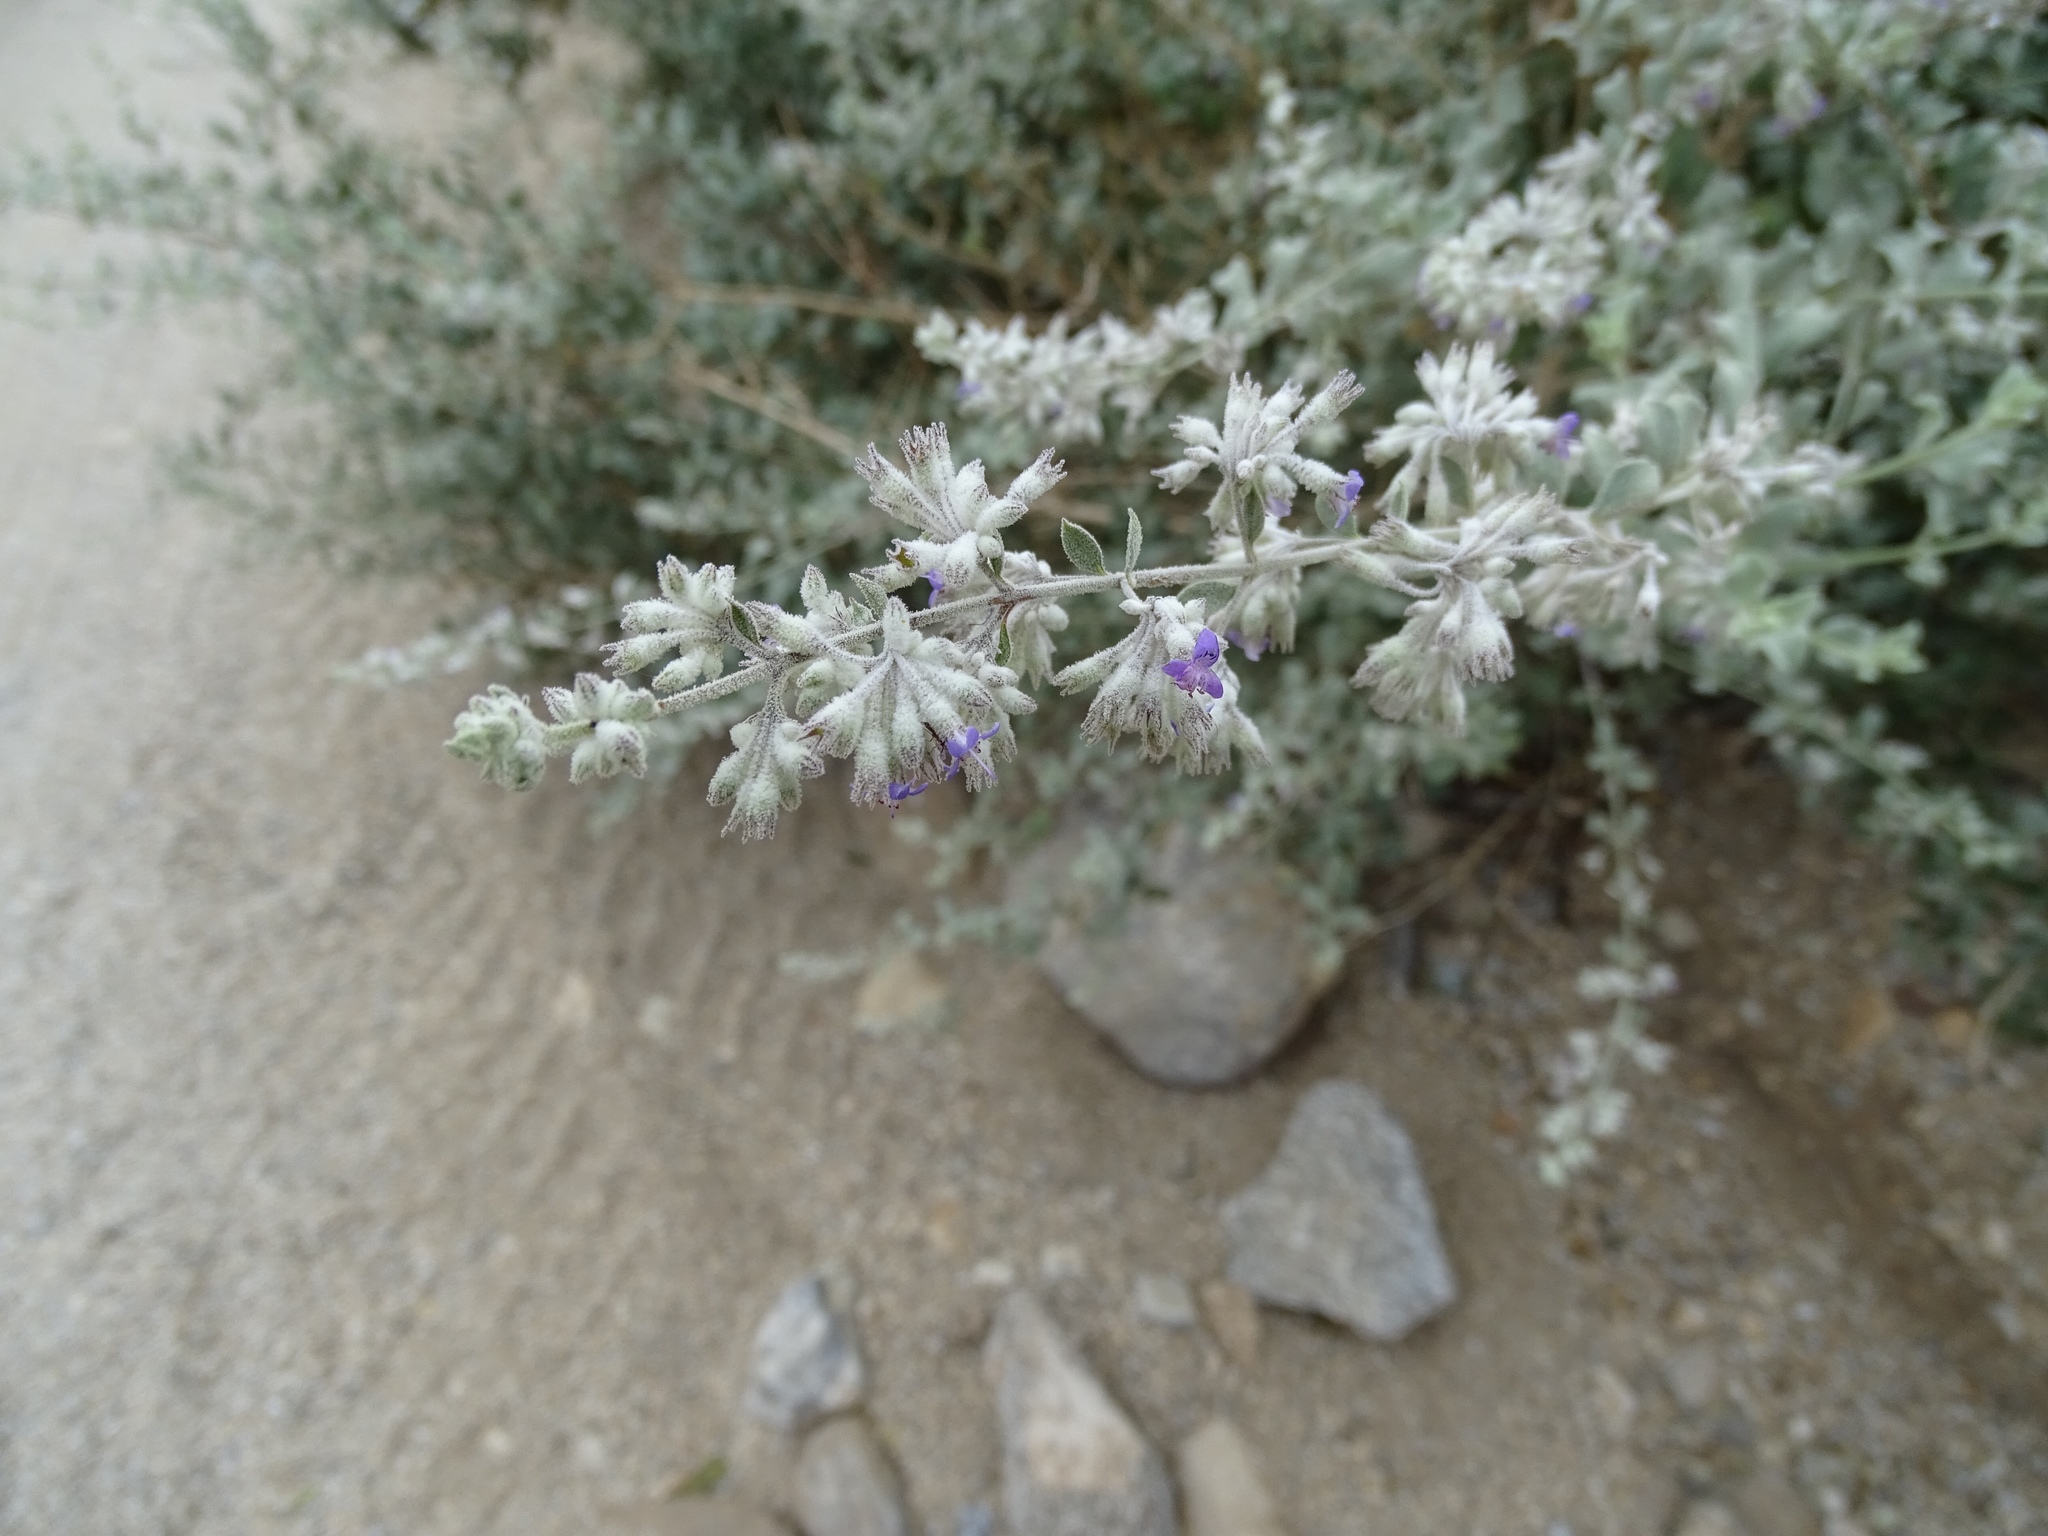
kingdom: Plantae
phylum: Tracheophyta
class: Magnoliopsida
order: Lamiales
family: Lamiaceae
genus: Condea
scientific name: Condea emoryi
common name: Chia
